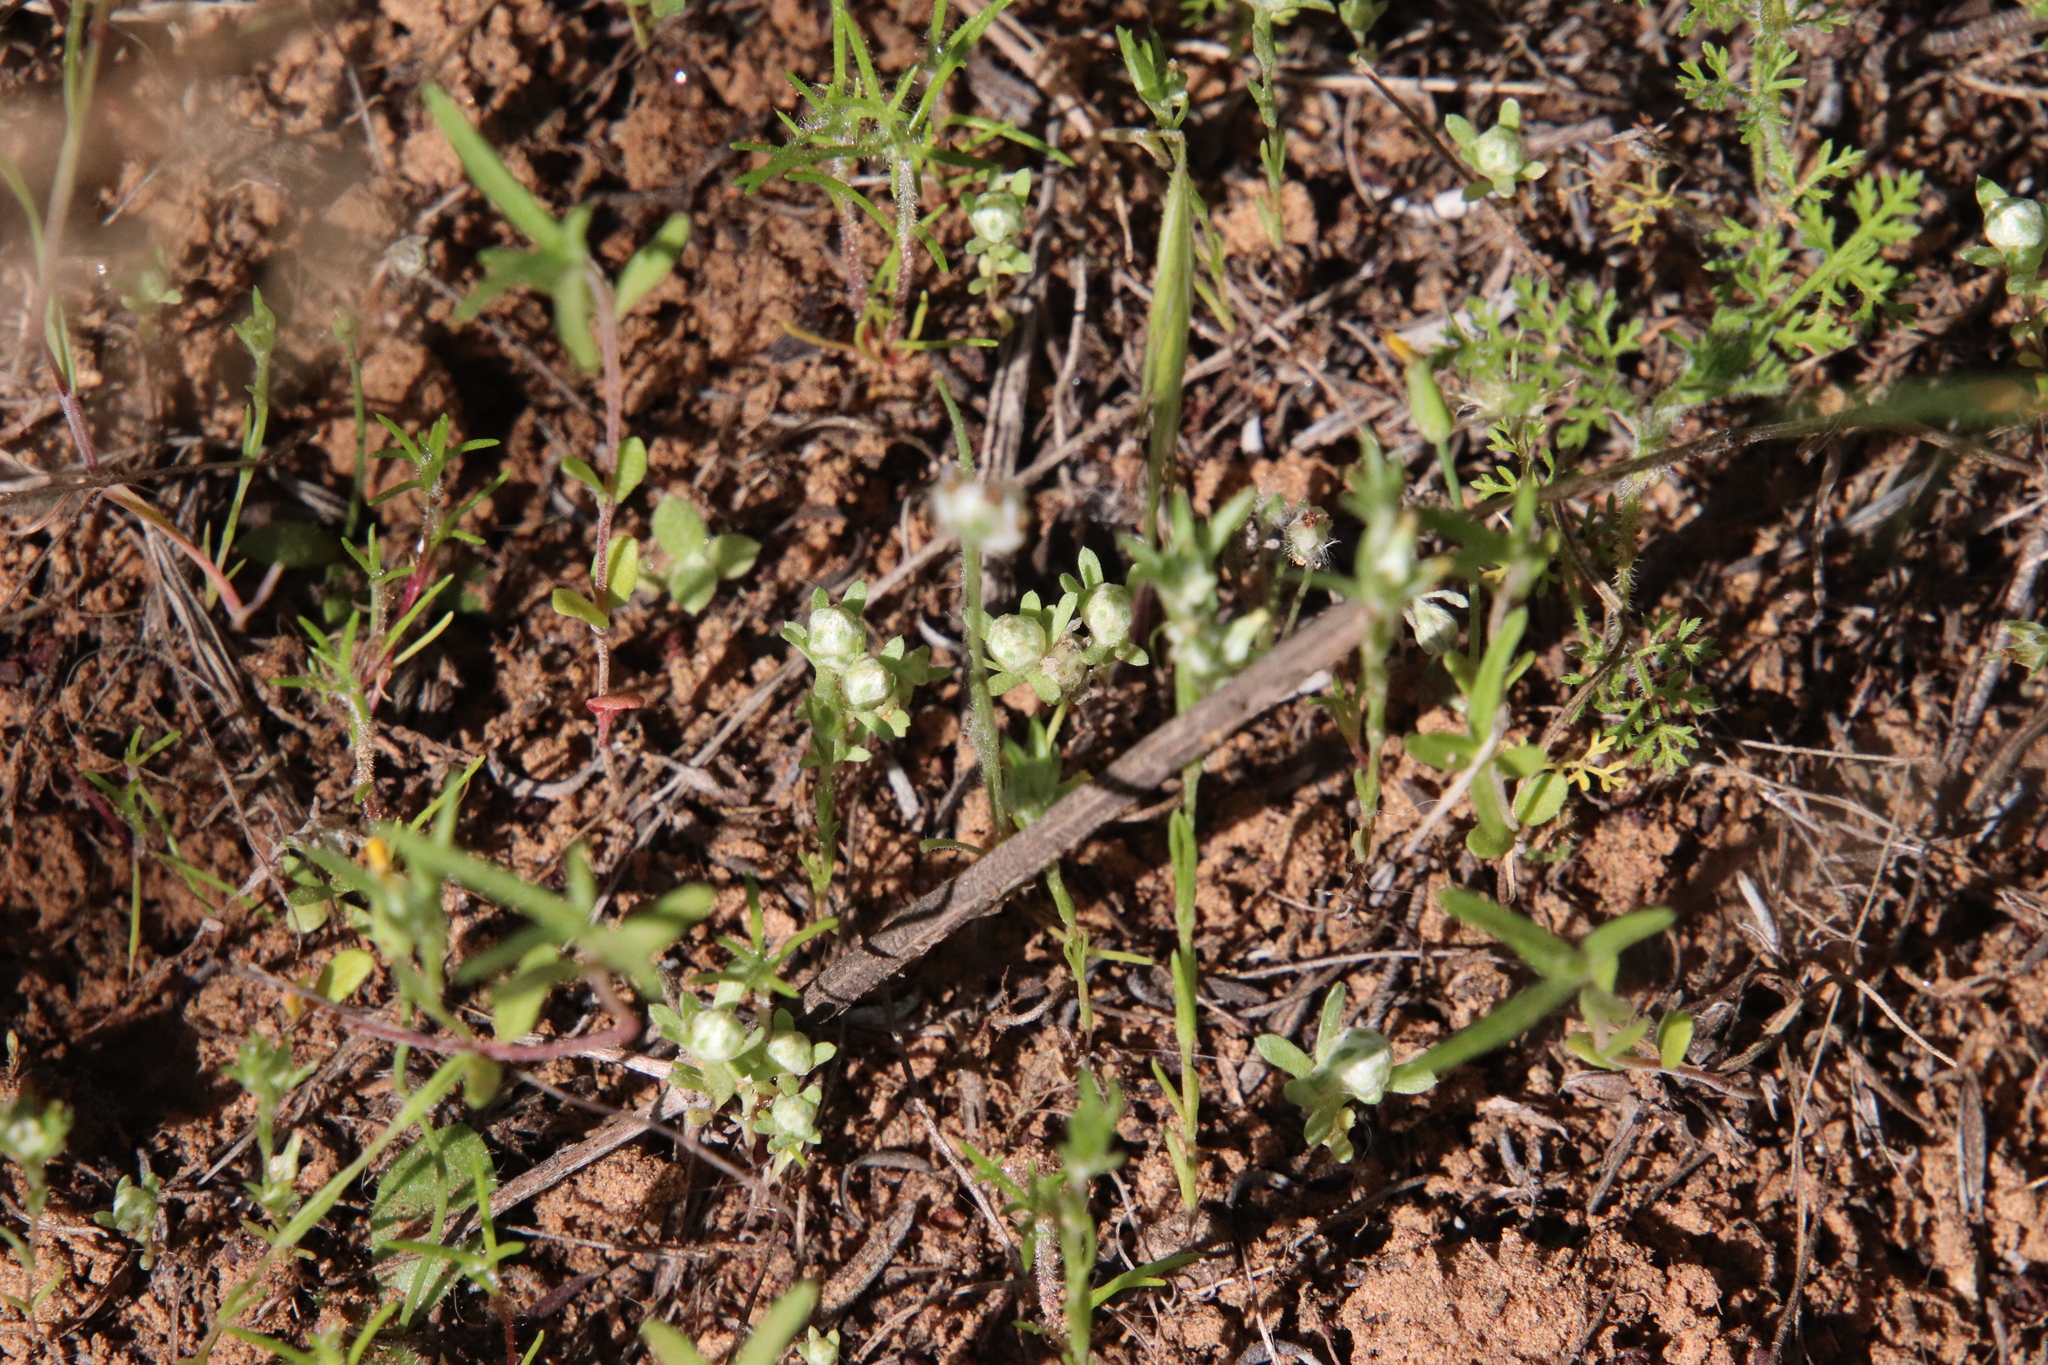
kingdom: Plantae
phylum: Tracheophyta
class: Magnoliopsida
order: Asterales
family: Asteraceae
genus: Stylocline
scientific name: Stylocline gnaphaloides
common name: Everlasting nest-straw
